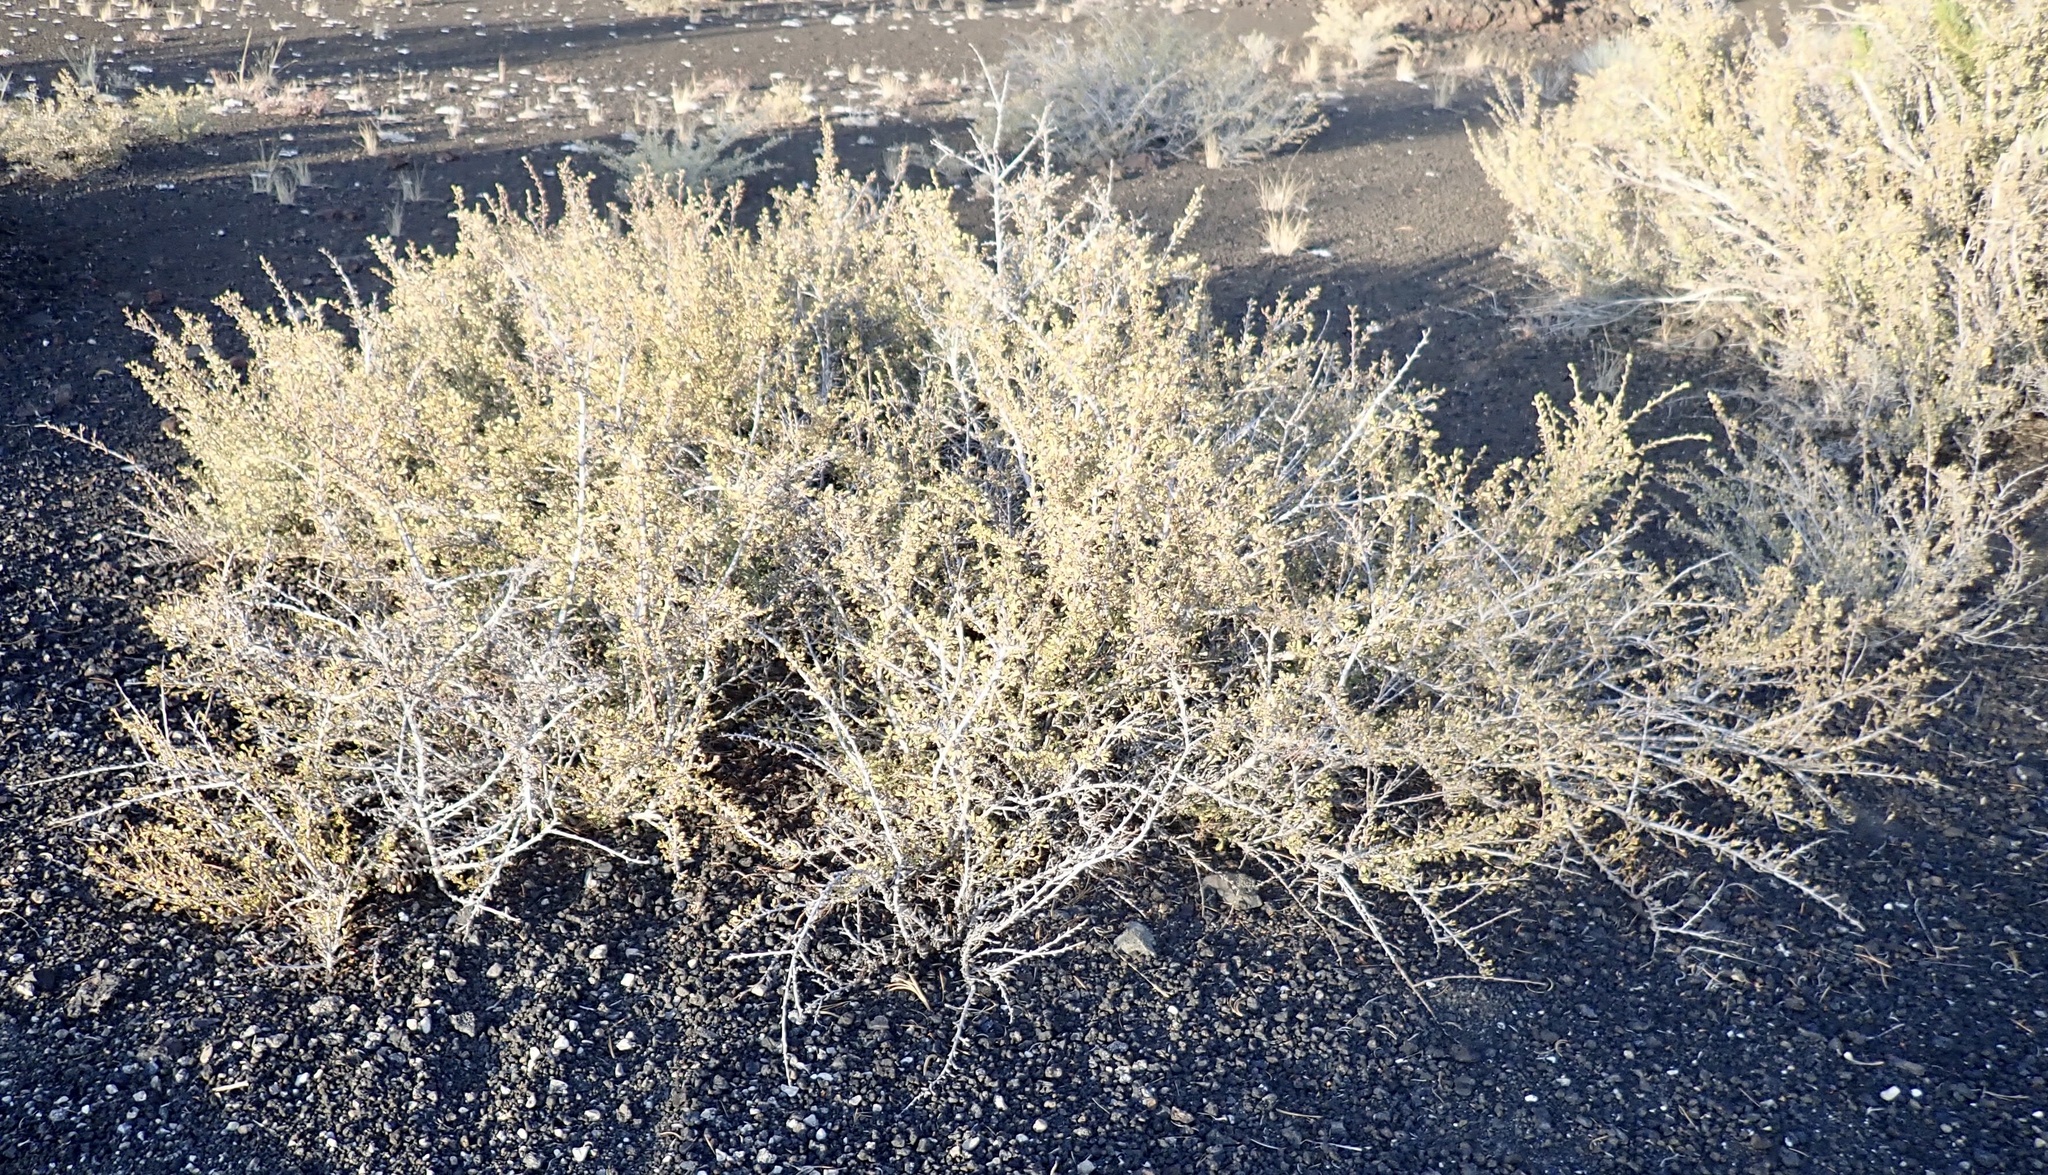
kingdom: Plantae
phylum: Tracheophyta
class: Magnoliopsida
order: Rosales
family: Rosaceae
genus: Purshia
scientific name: Purshia tridentata
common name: Antelope bitterbrush
